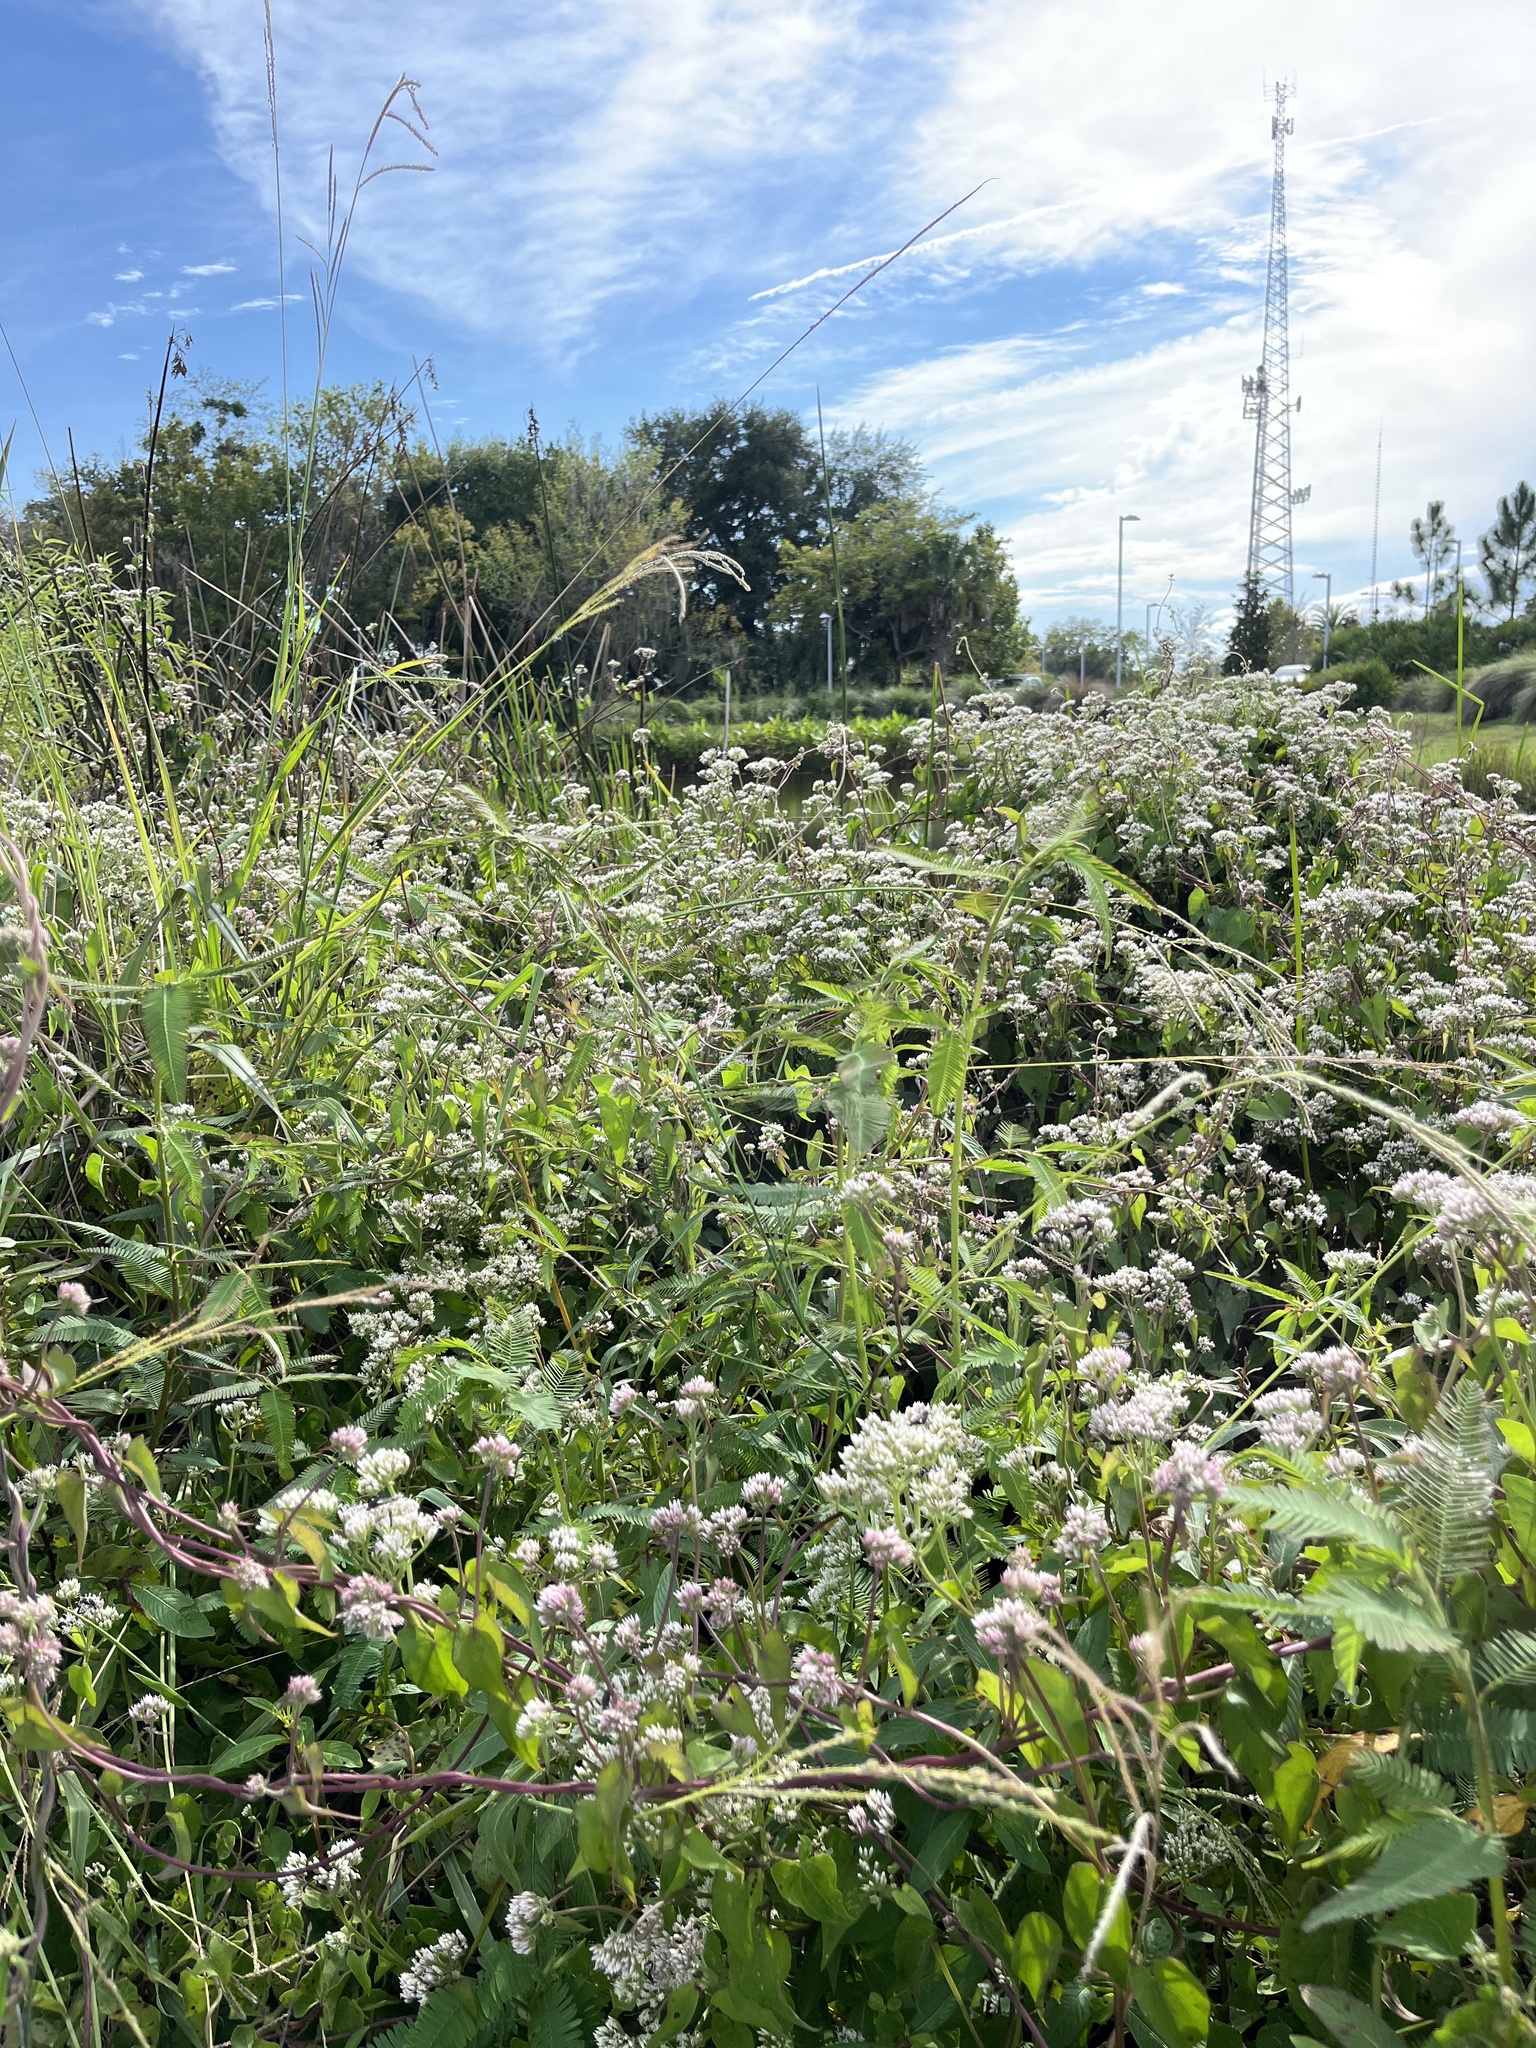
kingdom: Plantae
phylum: Tracheophyta
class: Magnoliopsida
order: Asterales
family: Asteraceae
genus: Mikania
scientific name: Mikania scandens
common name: Climbing hempvine
